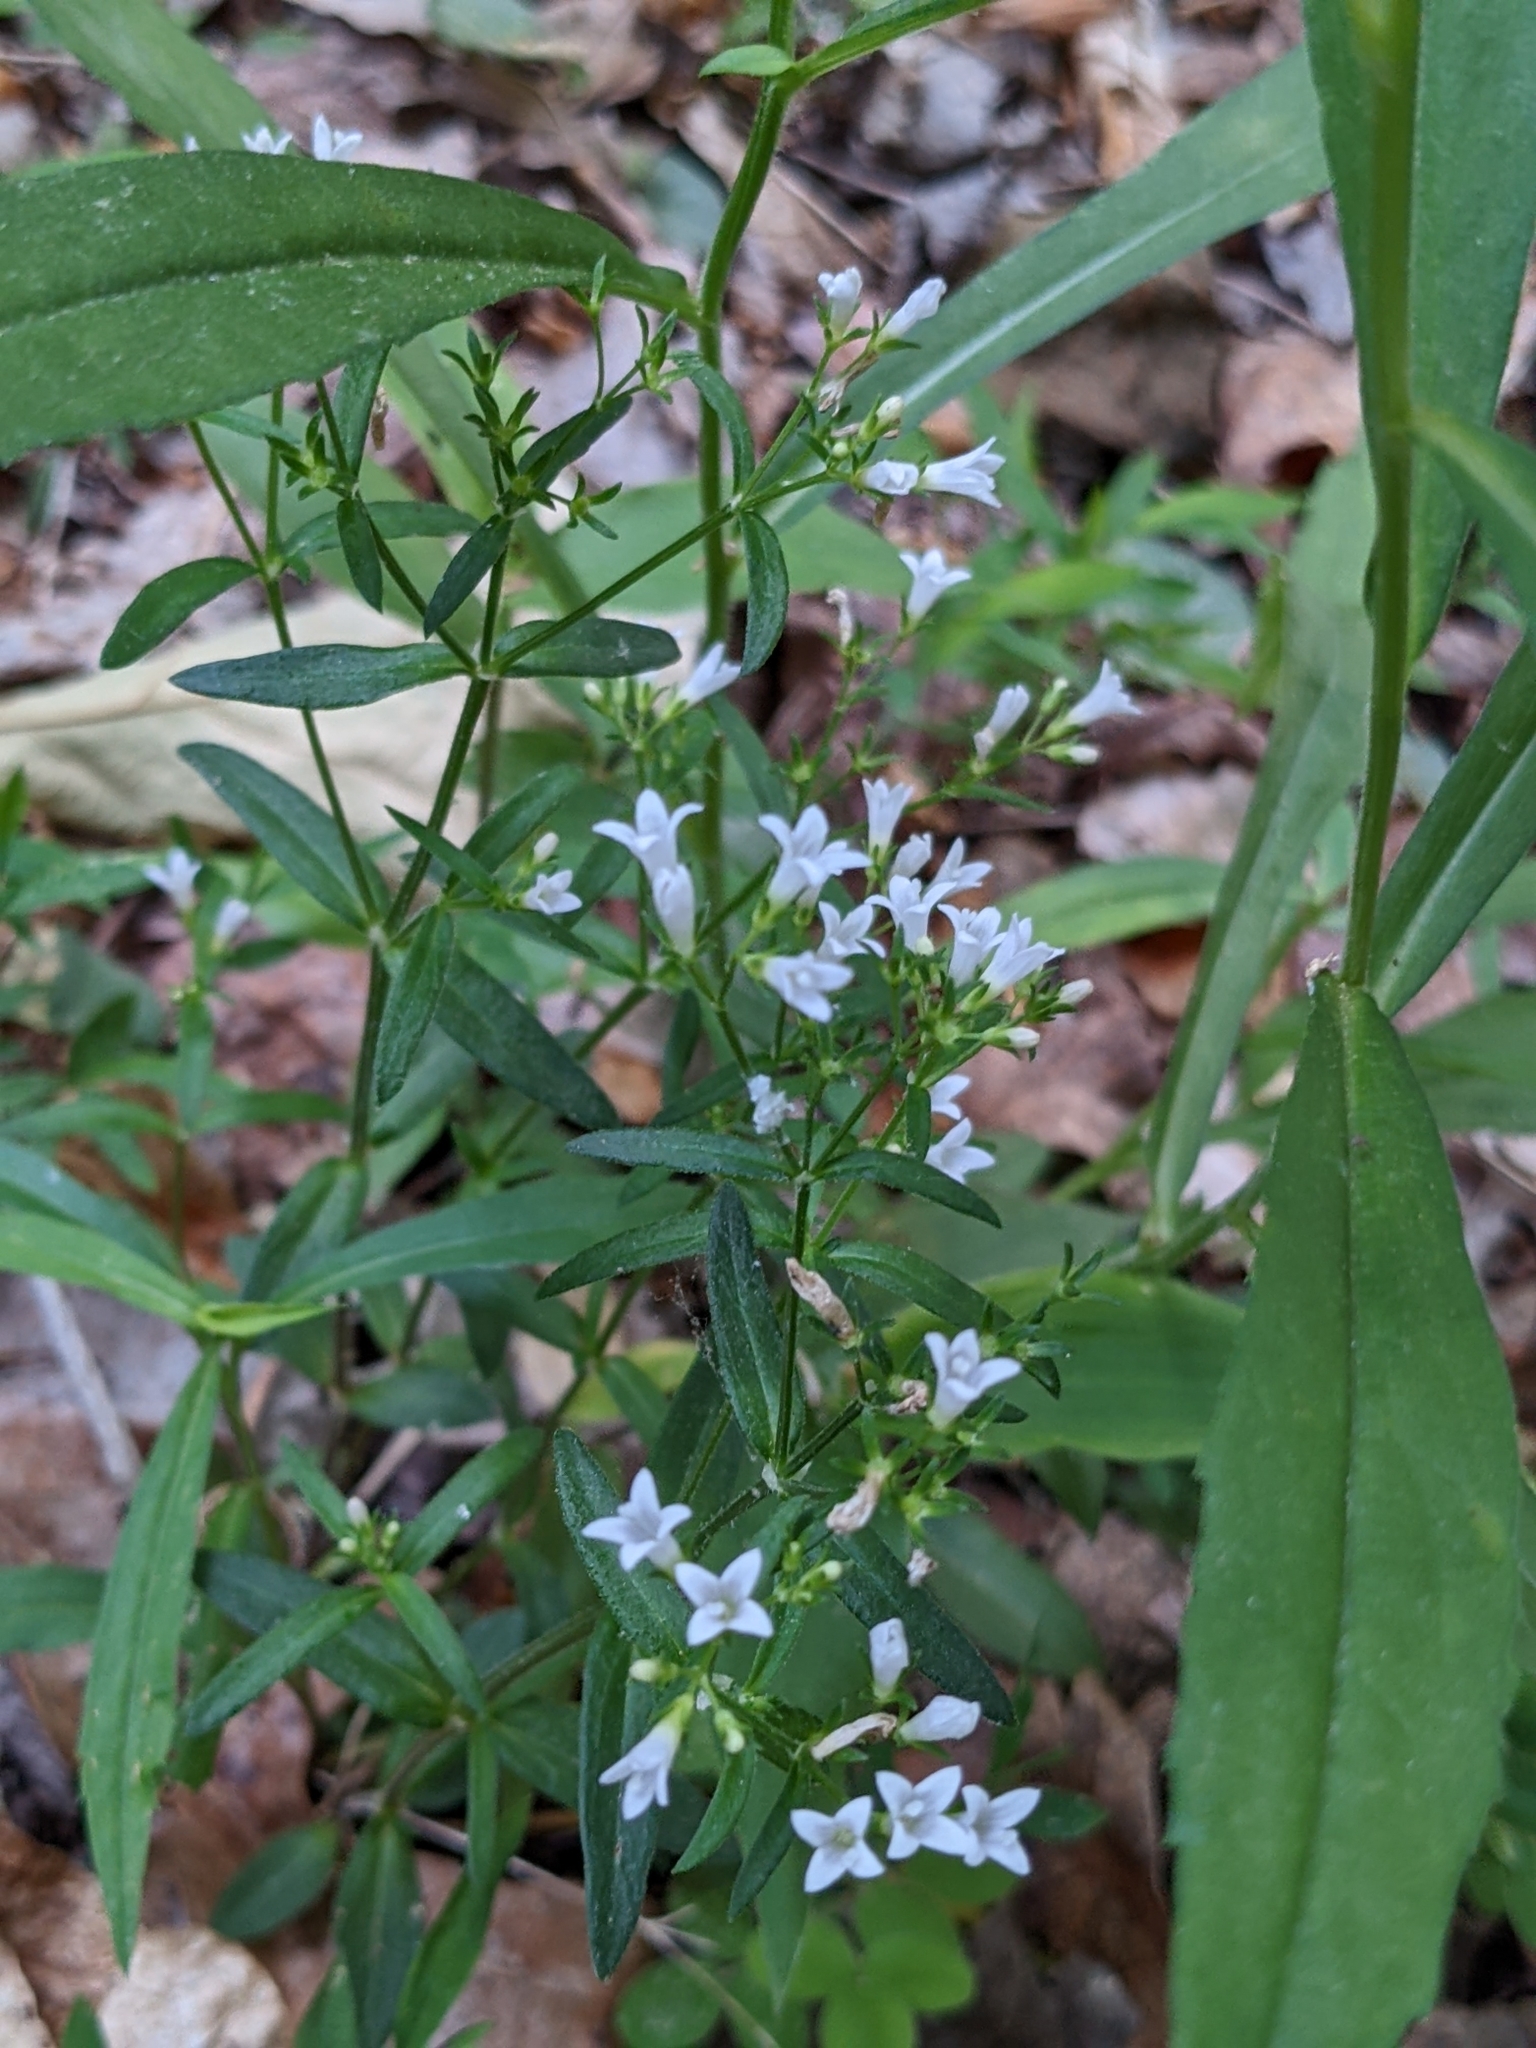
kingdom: Plantae
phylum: Tracheophyta
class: Magnoliopsida
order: Gentianales
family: Rubiaceae
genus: Houstonia
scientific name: Houstonia longifolia
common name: Long-leaved bluets
